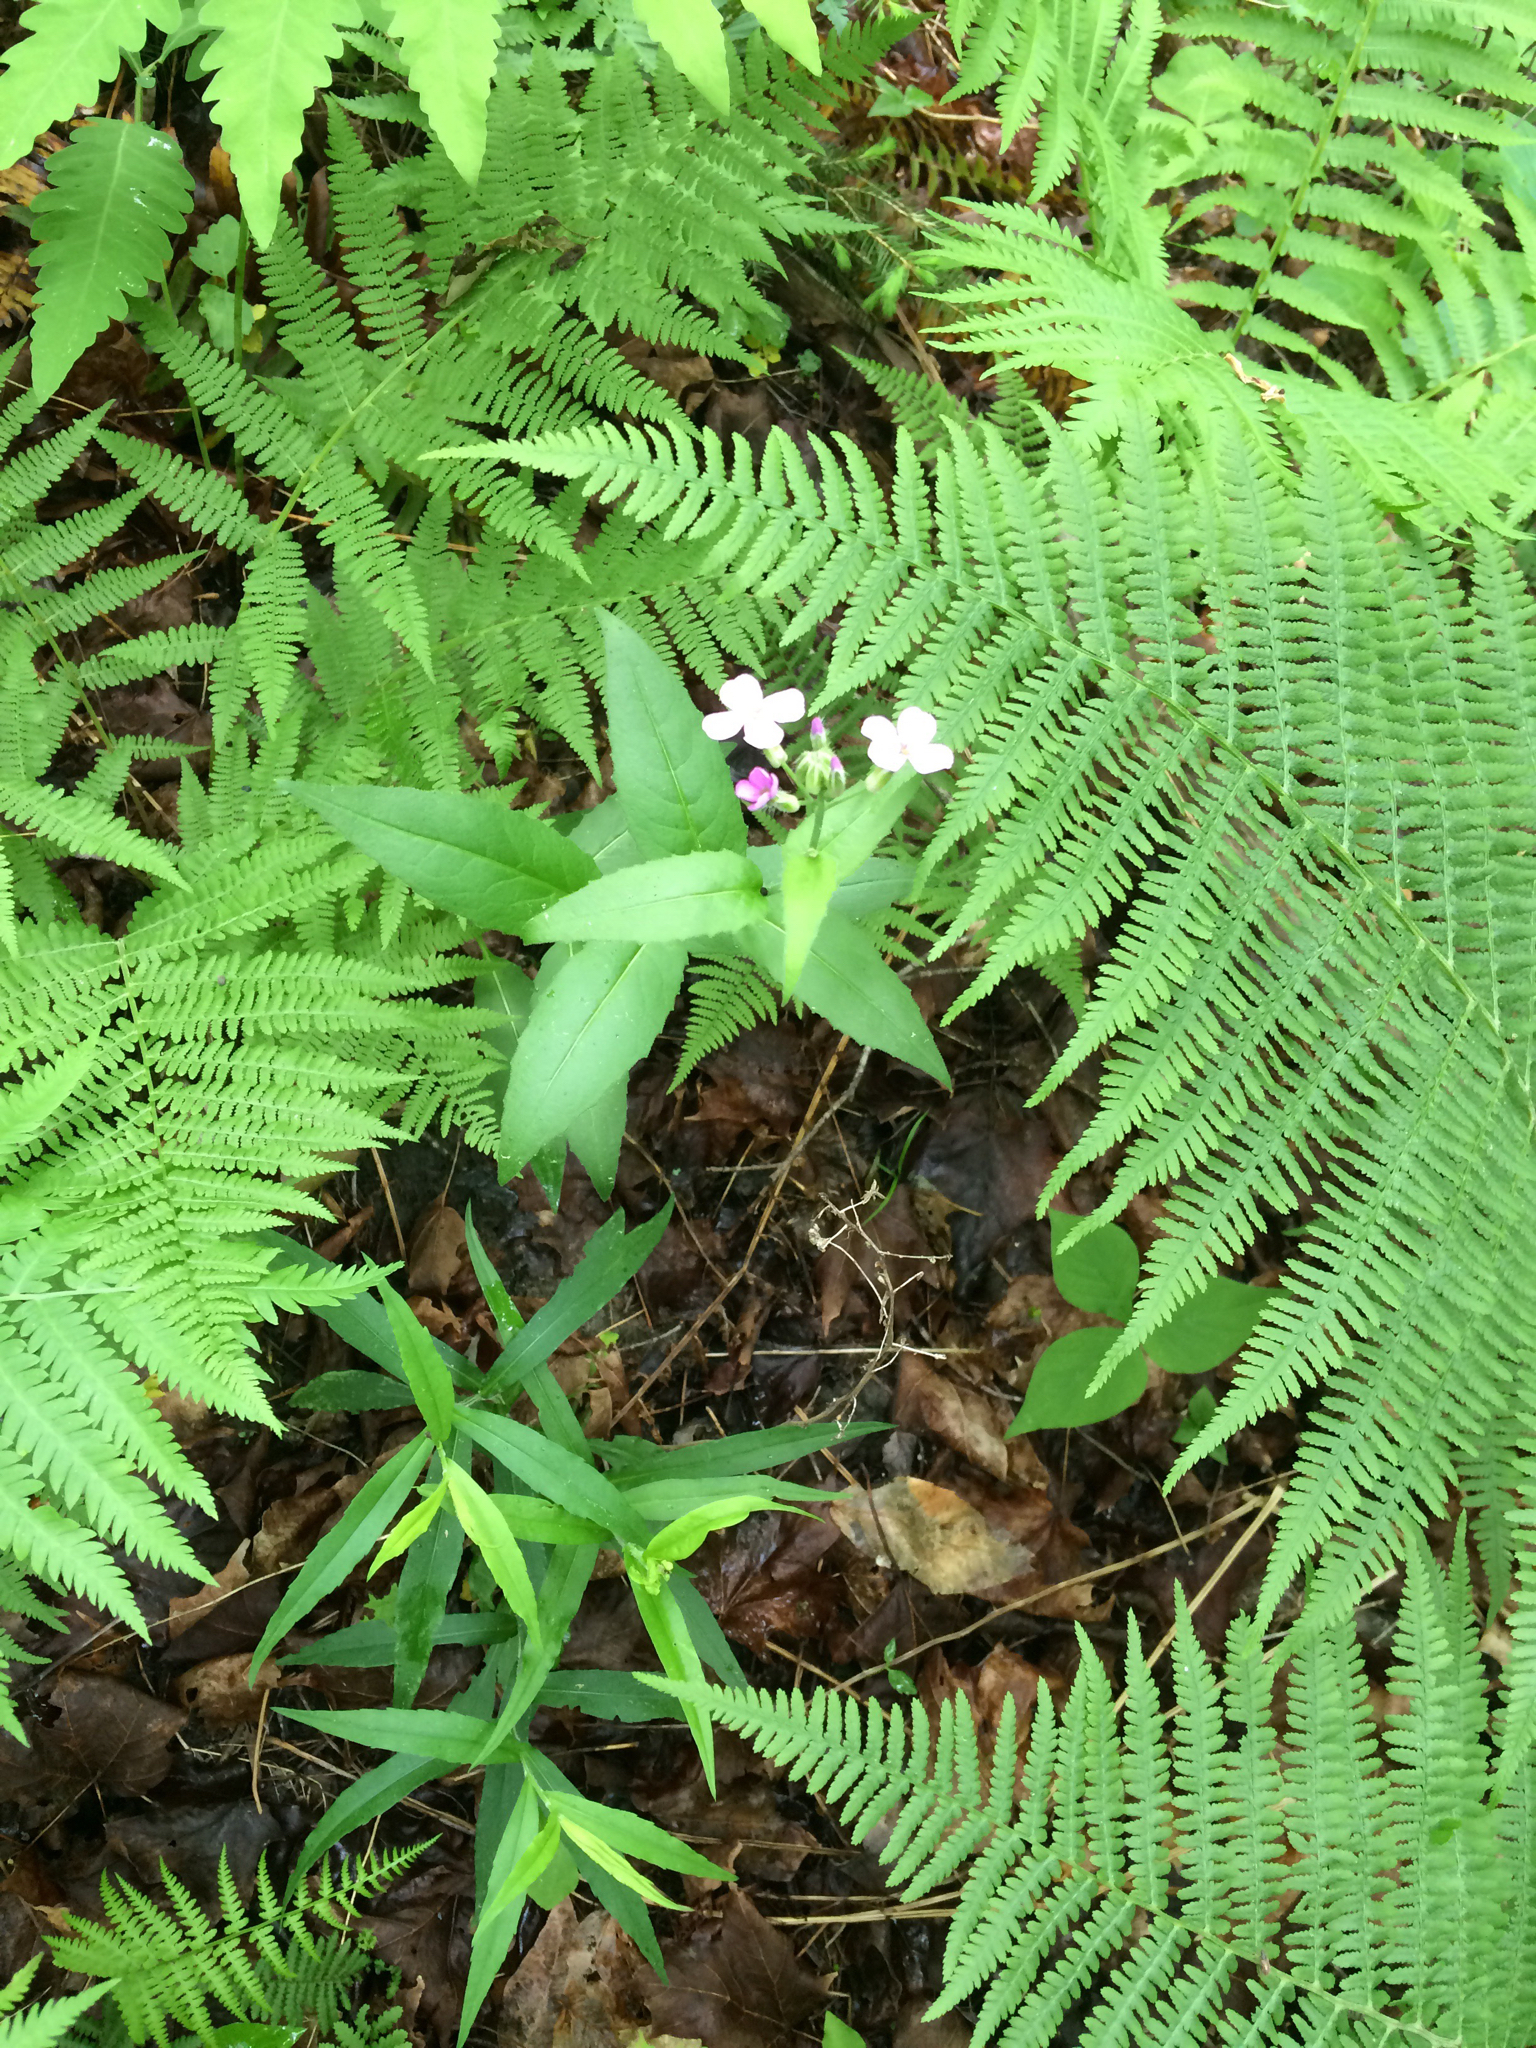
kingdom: Plantae
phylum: Tracheophyta
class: Magnoliopsida
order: Brassicales
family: Brassicaceae
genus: Hesperis
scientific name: Hesperis matronalis
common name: Dame's-violet
